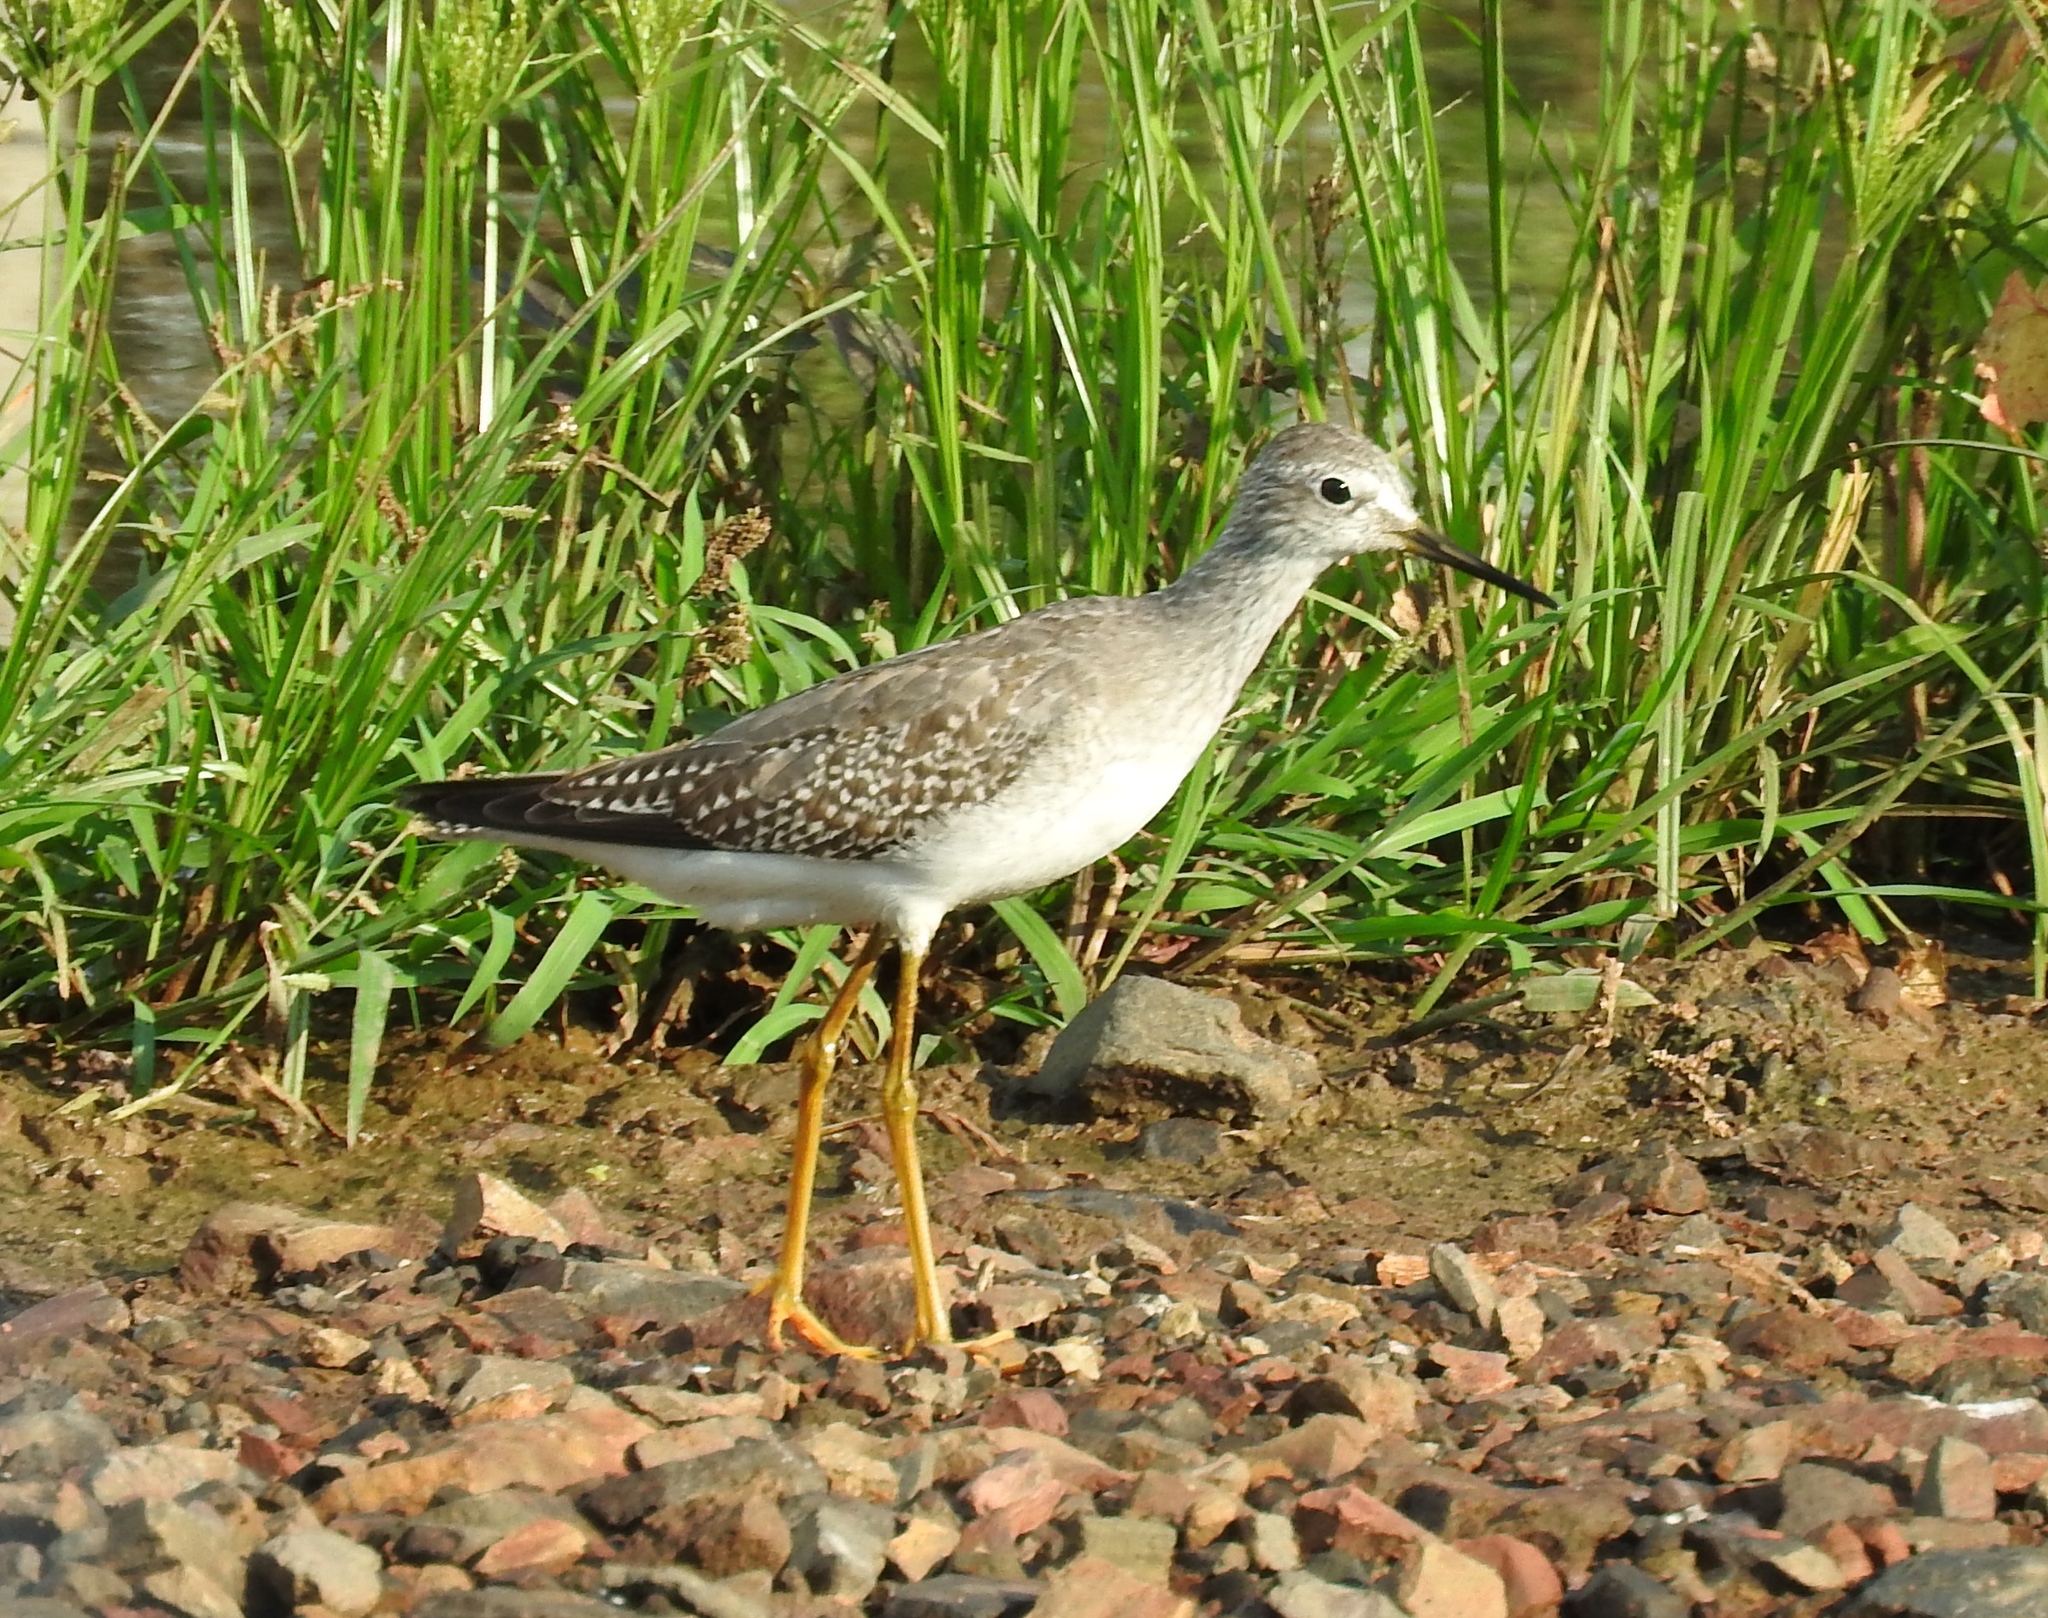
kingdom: Animalia
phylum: Chordata
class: Aves
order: Charadriiformes
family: Scolopacidae
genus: Tringa
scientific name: Tringa flavipes
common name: Lesser yellowlegs
